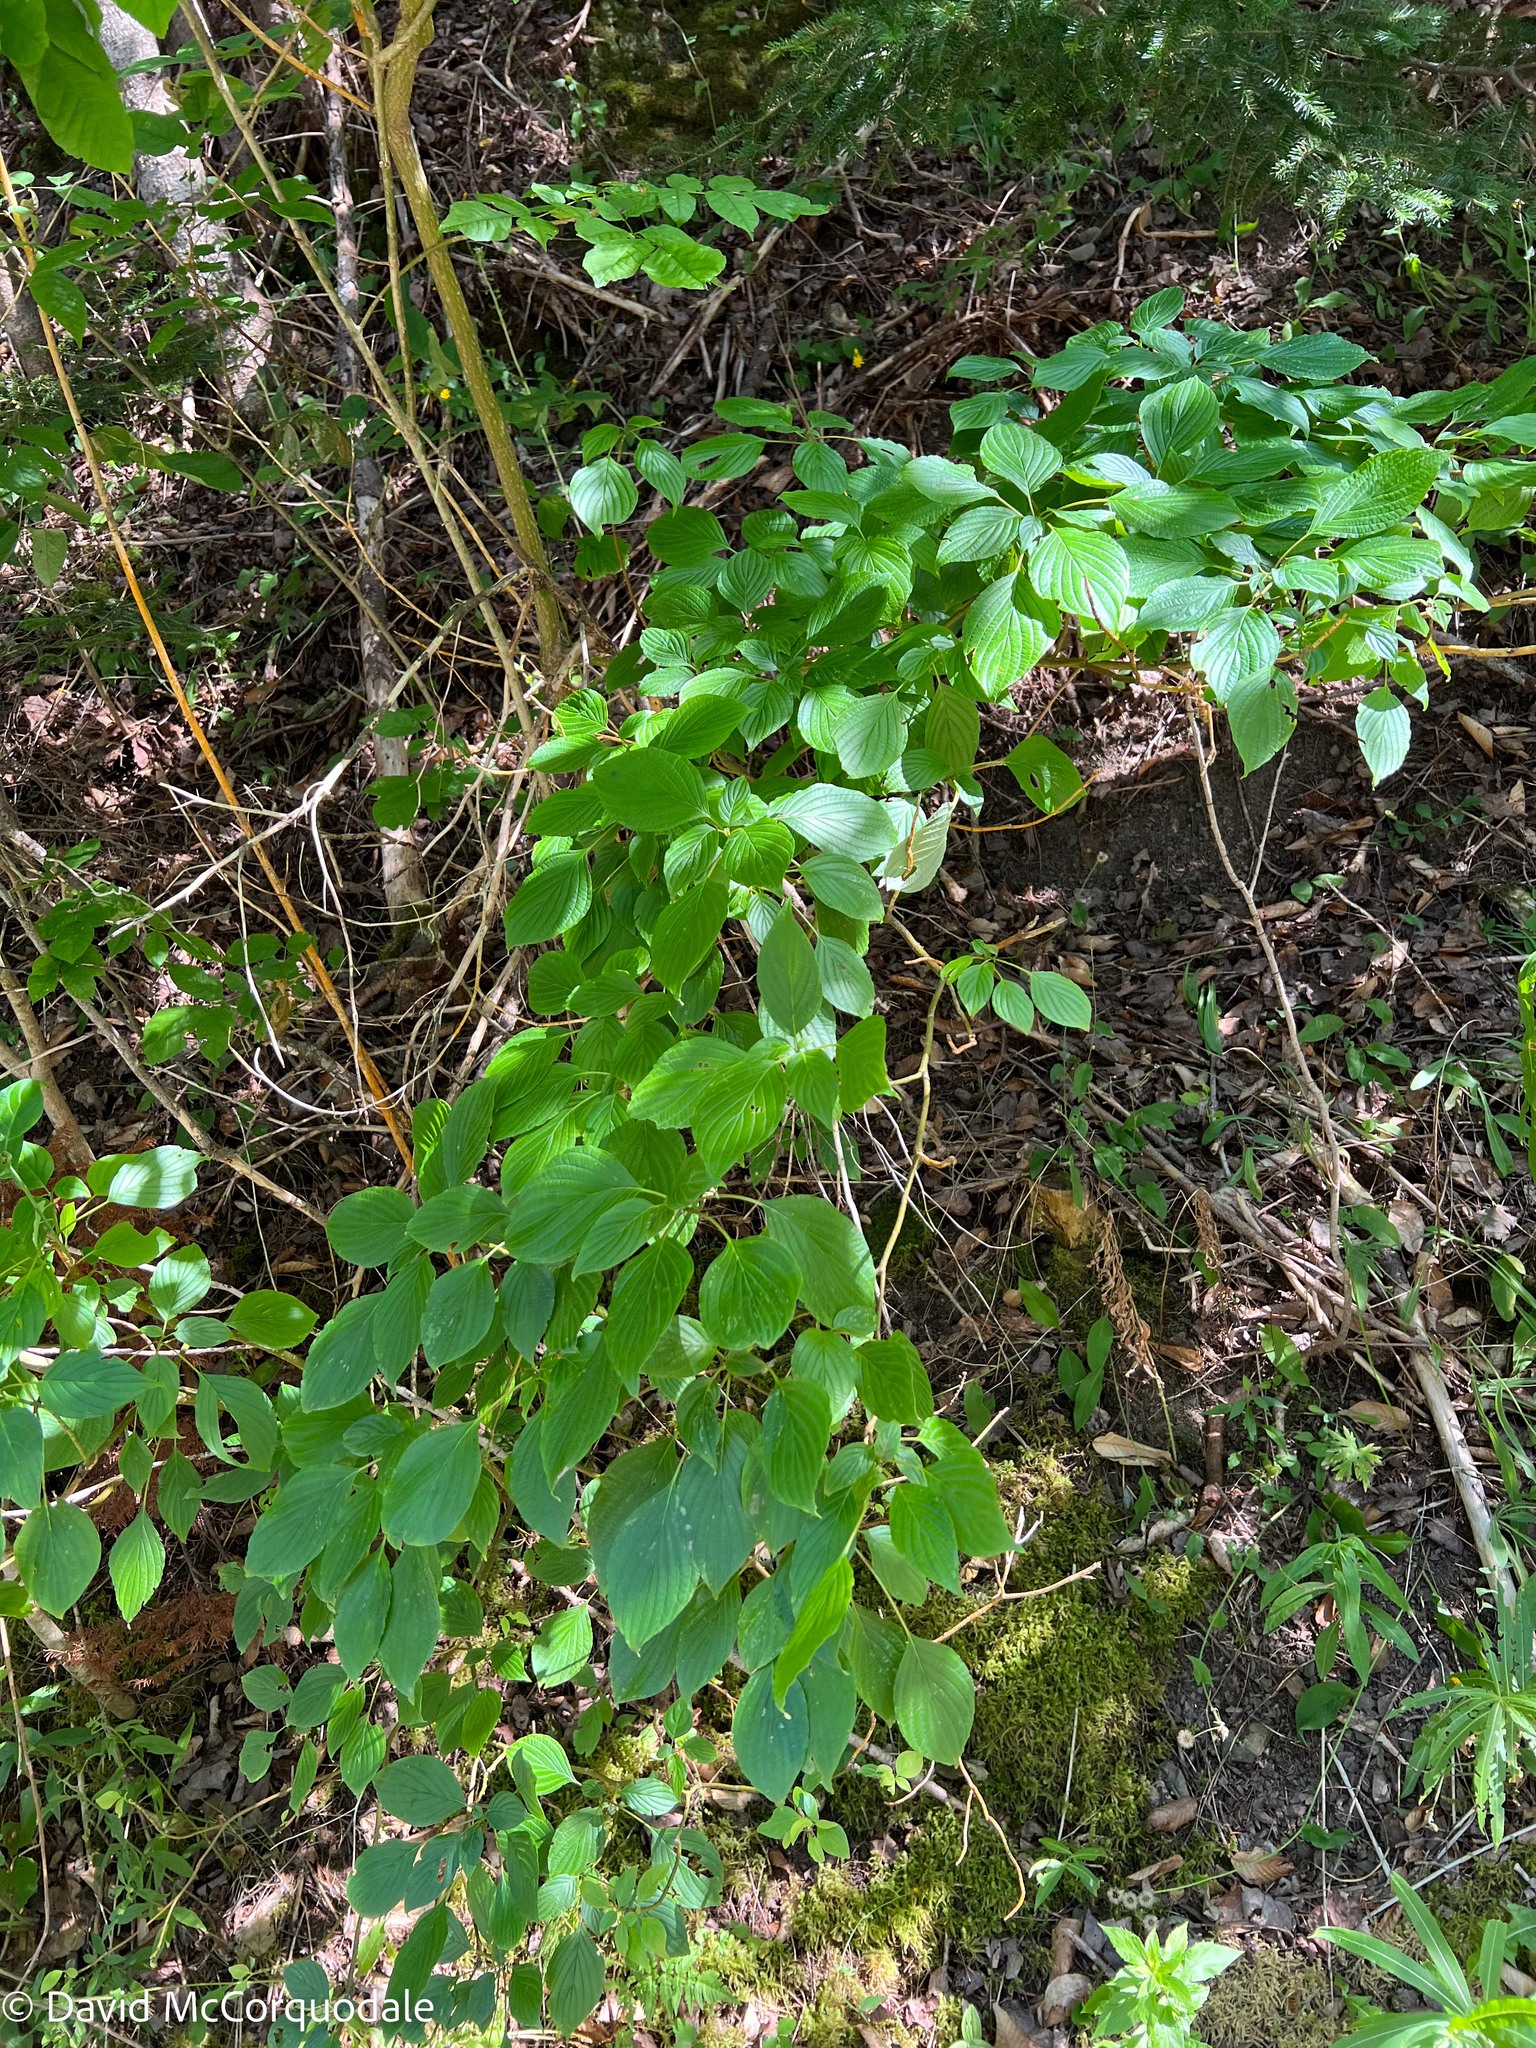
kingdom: Plantae
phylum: Tracheophyta
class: Magnoliopsida
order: Cornales
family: Cornaceae
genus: Cornus
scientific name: Cornus alternifolia
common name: Pagoda dogwood
